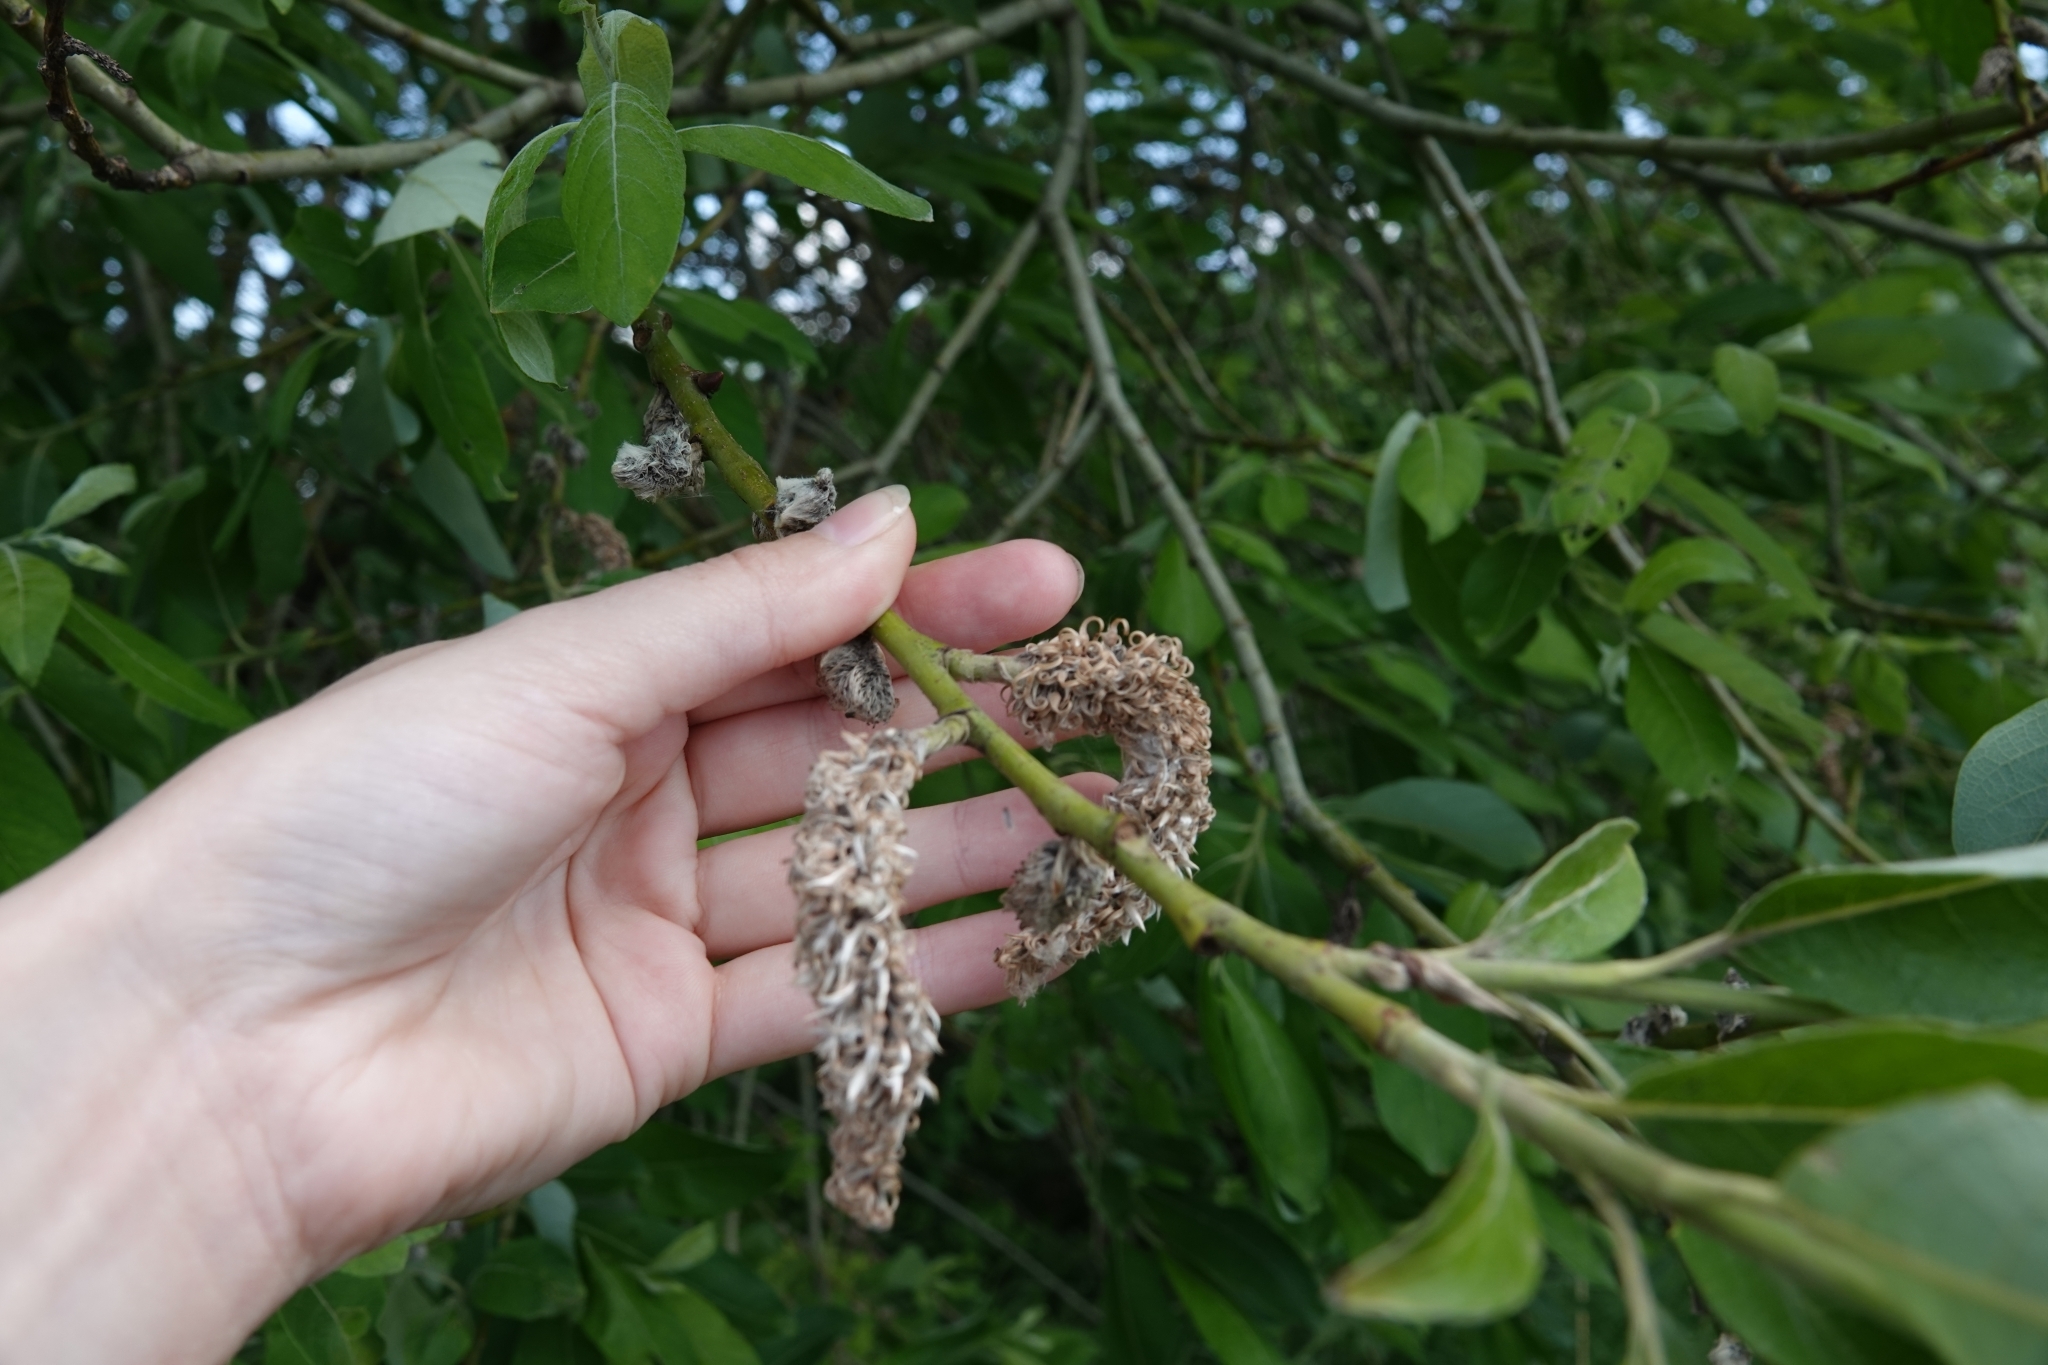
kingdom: Plantae
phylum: Tracheophyta
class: Magnoliopsida
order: Malpighiales
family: Salicaceae
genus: Salix
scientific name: Salix cinerea
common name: Common sallow
